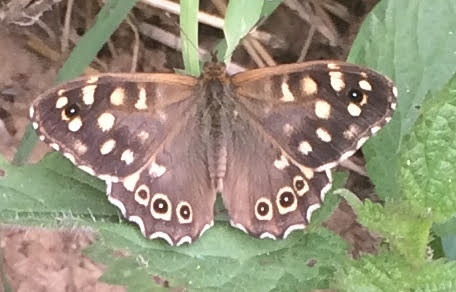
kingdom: Animalia
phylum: Arthropoda
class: Insecta
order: Lepidoptera
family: Nymphalidae
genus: Pararge
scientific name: Pararge aegeria
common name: Speckled wood
